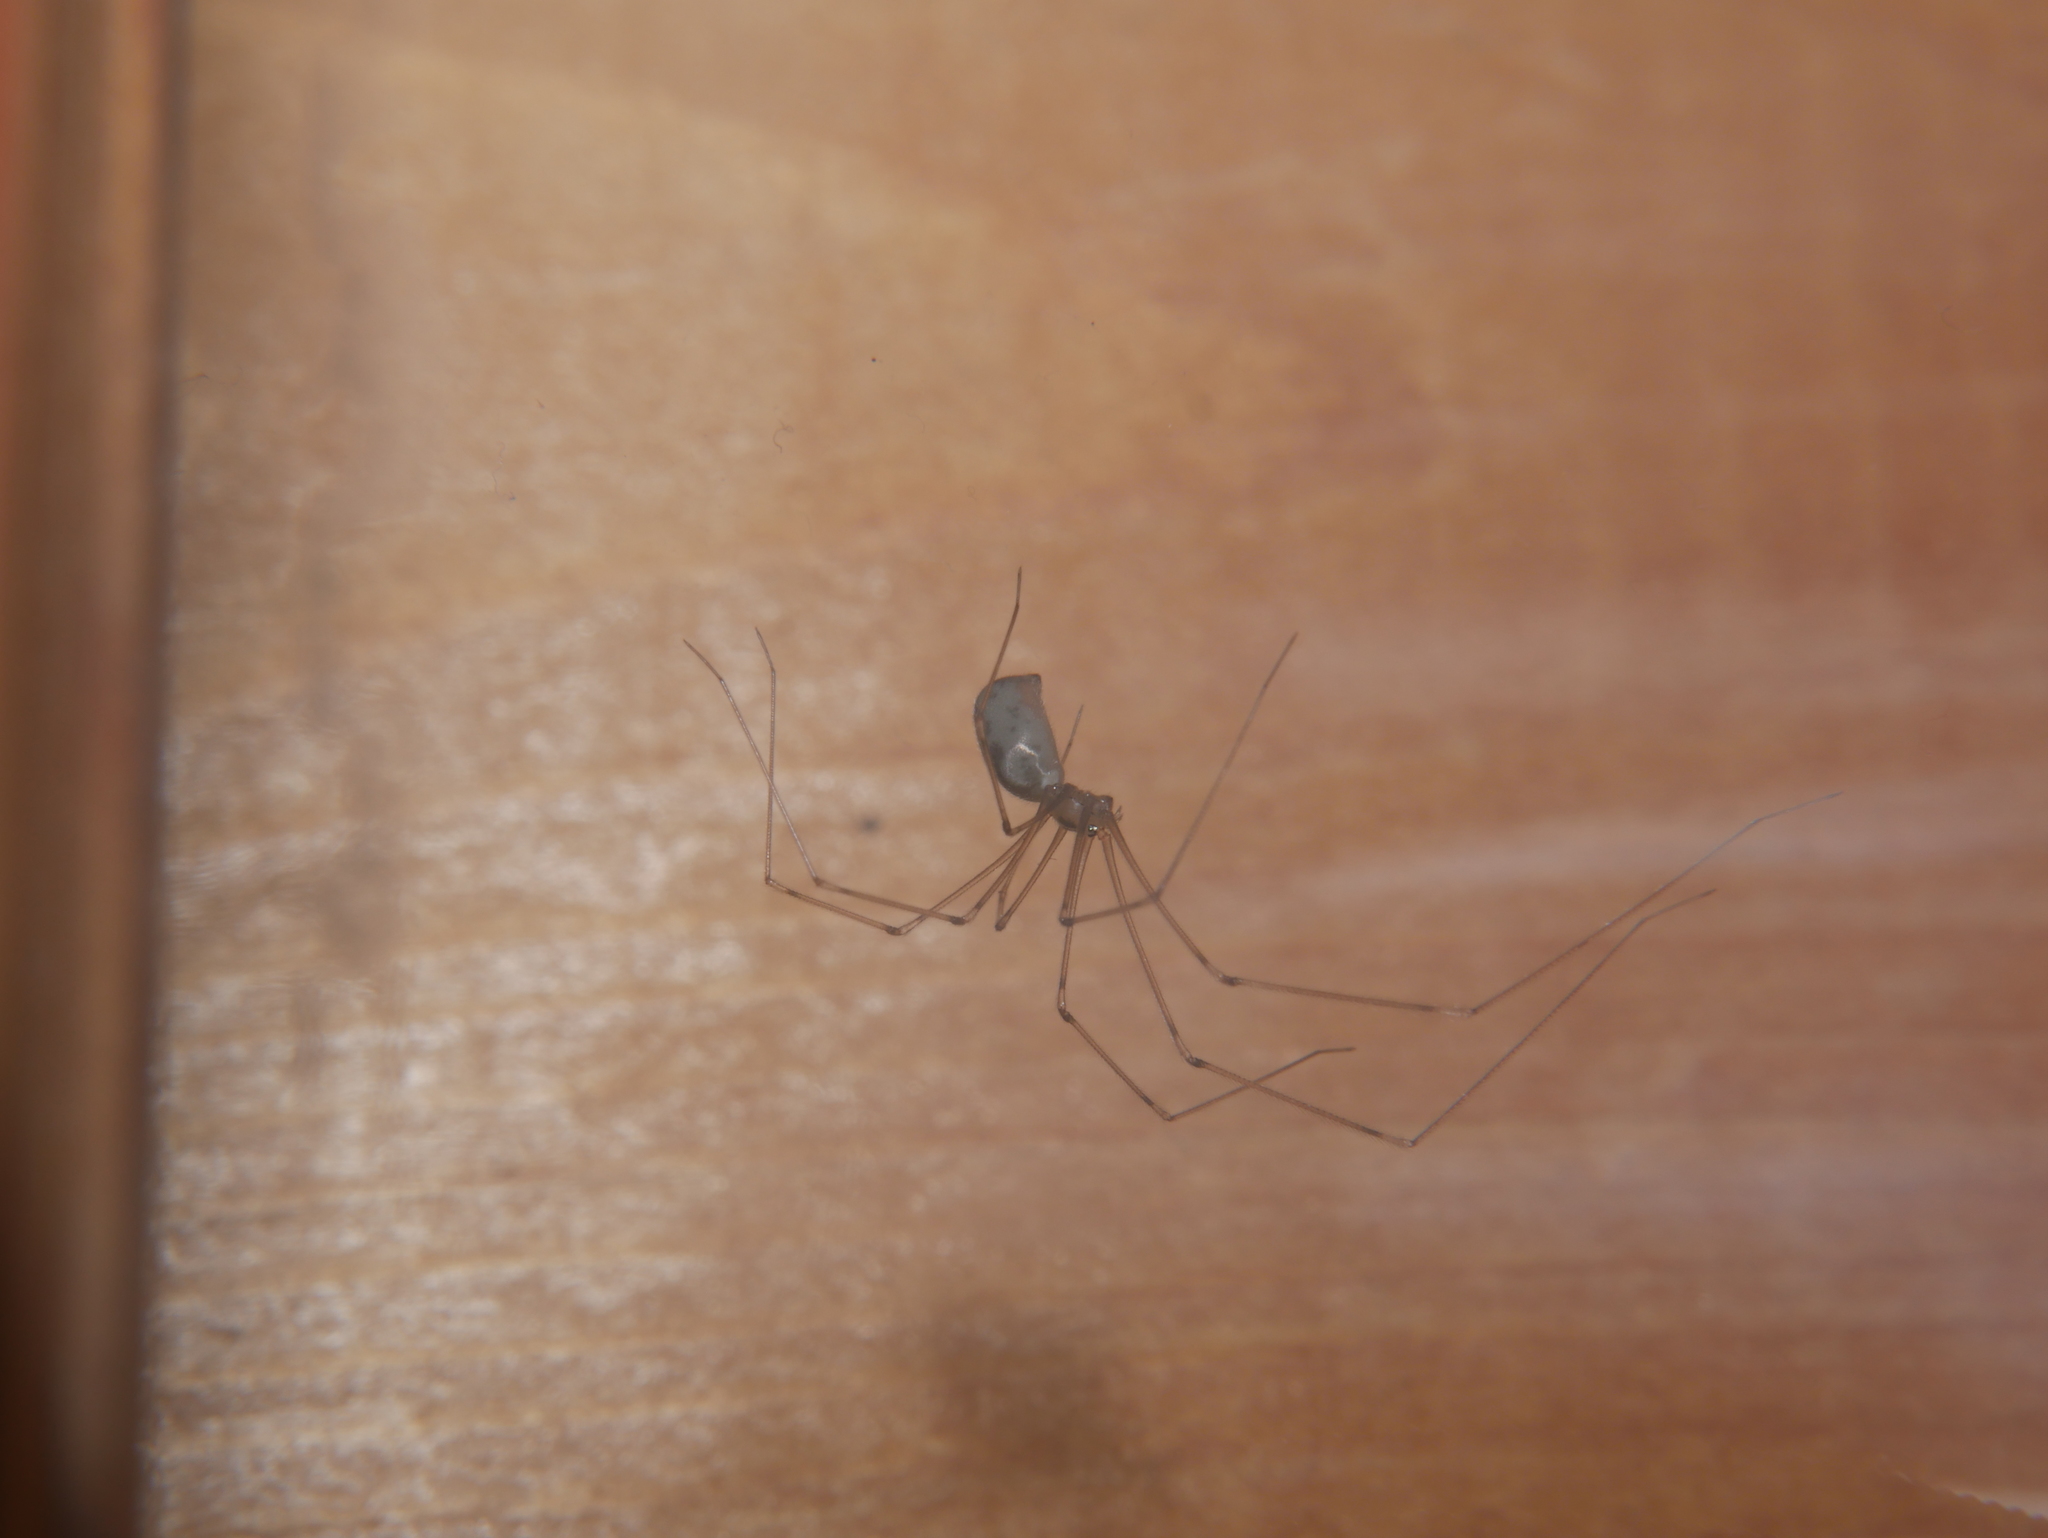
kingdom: Animalia
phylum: Arthropoda
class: Arachnida
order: Araneae
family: Pholcidae
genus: Pholcus
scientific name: Pholcus phalangioides
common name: Longbodied cellar spider
